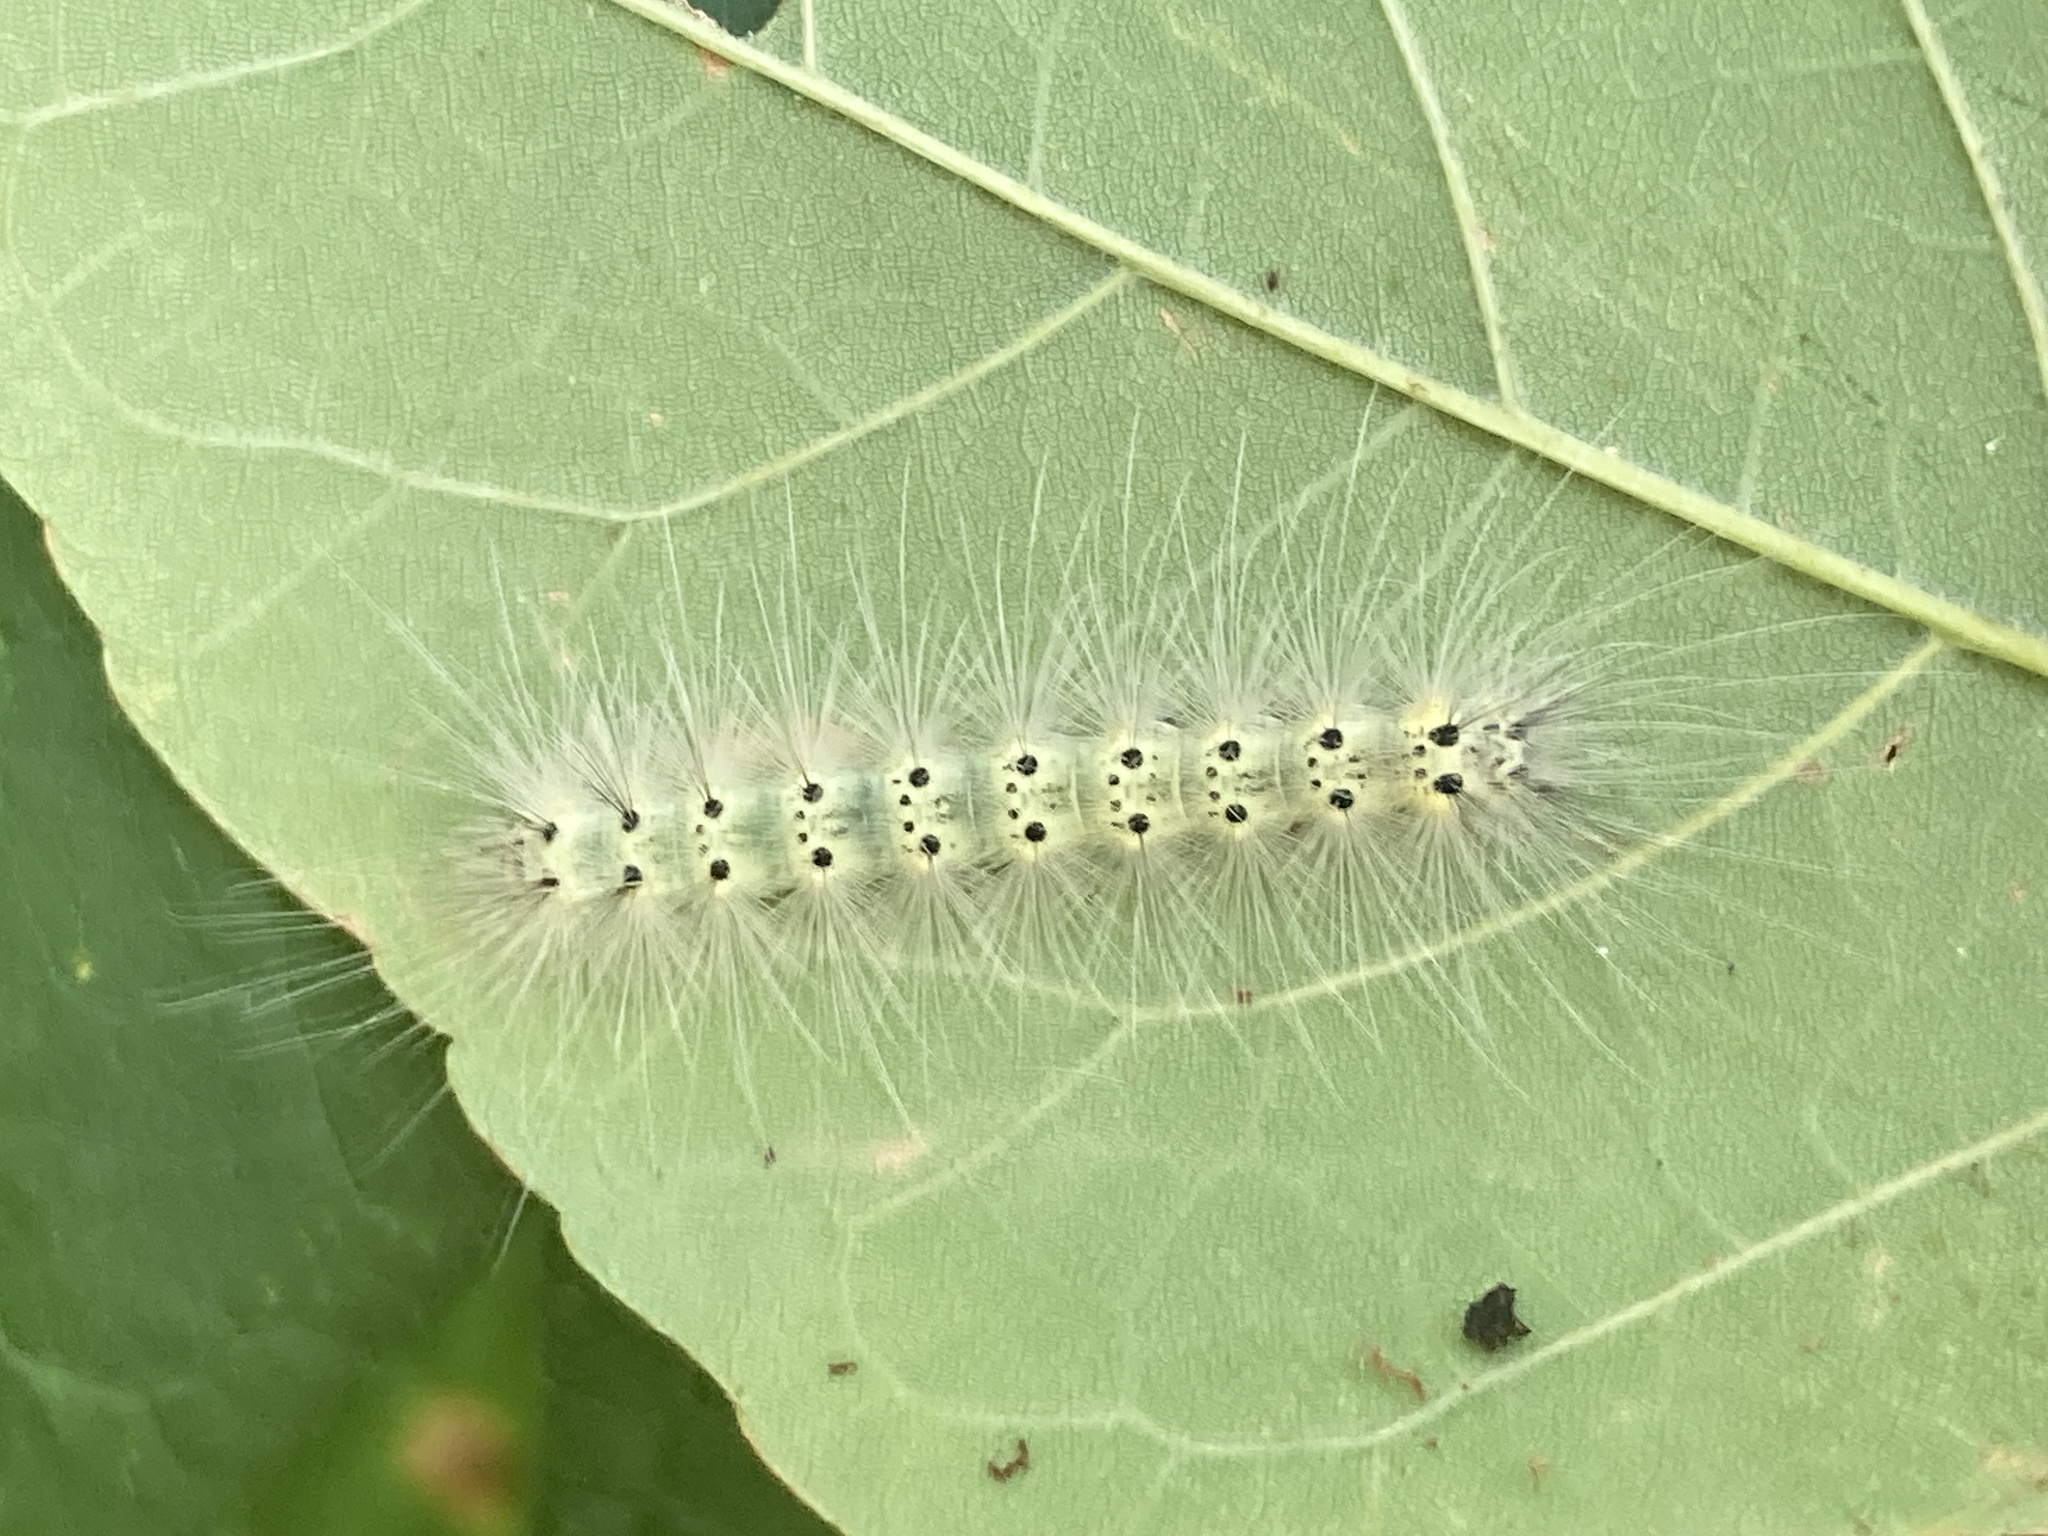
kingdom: Animalia
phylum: Arthropoda
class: Insecta
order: Lepidoptera
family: Erebidae
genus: Hyphantria
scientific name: Hyphantria cunea
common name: American white moth
